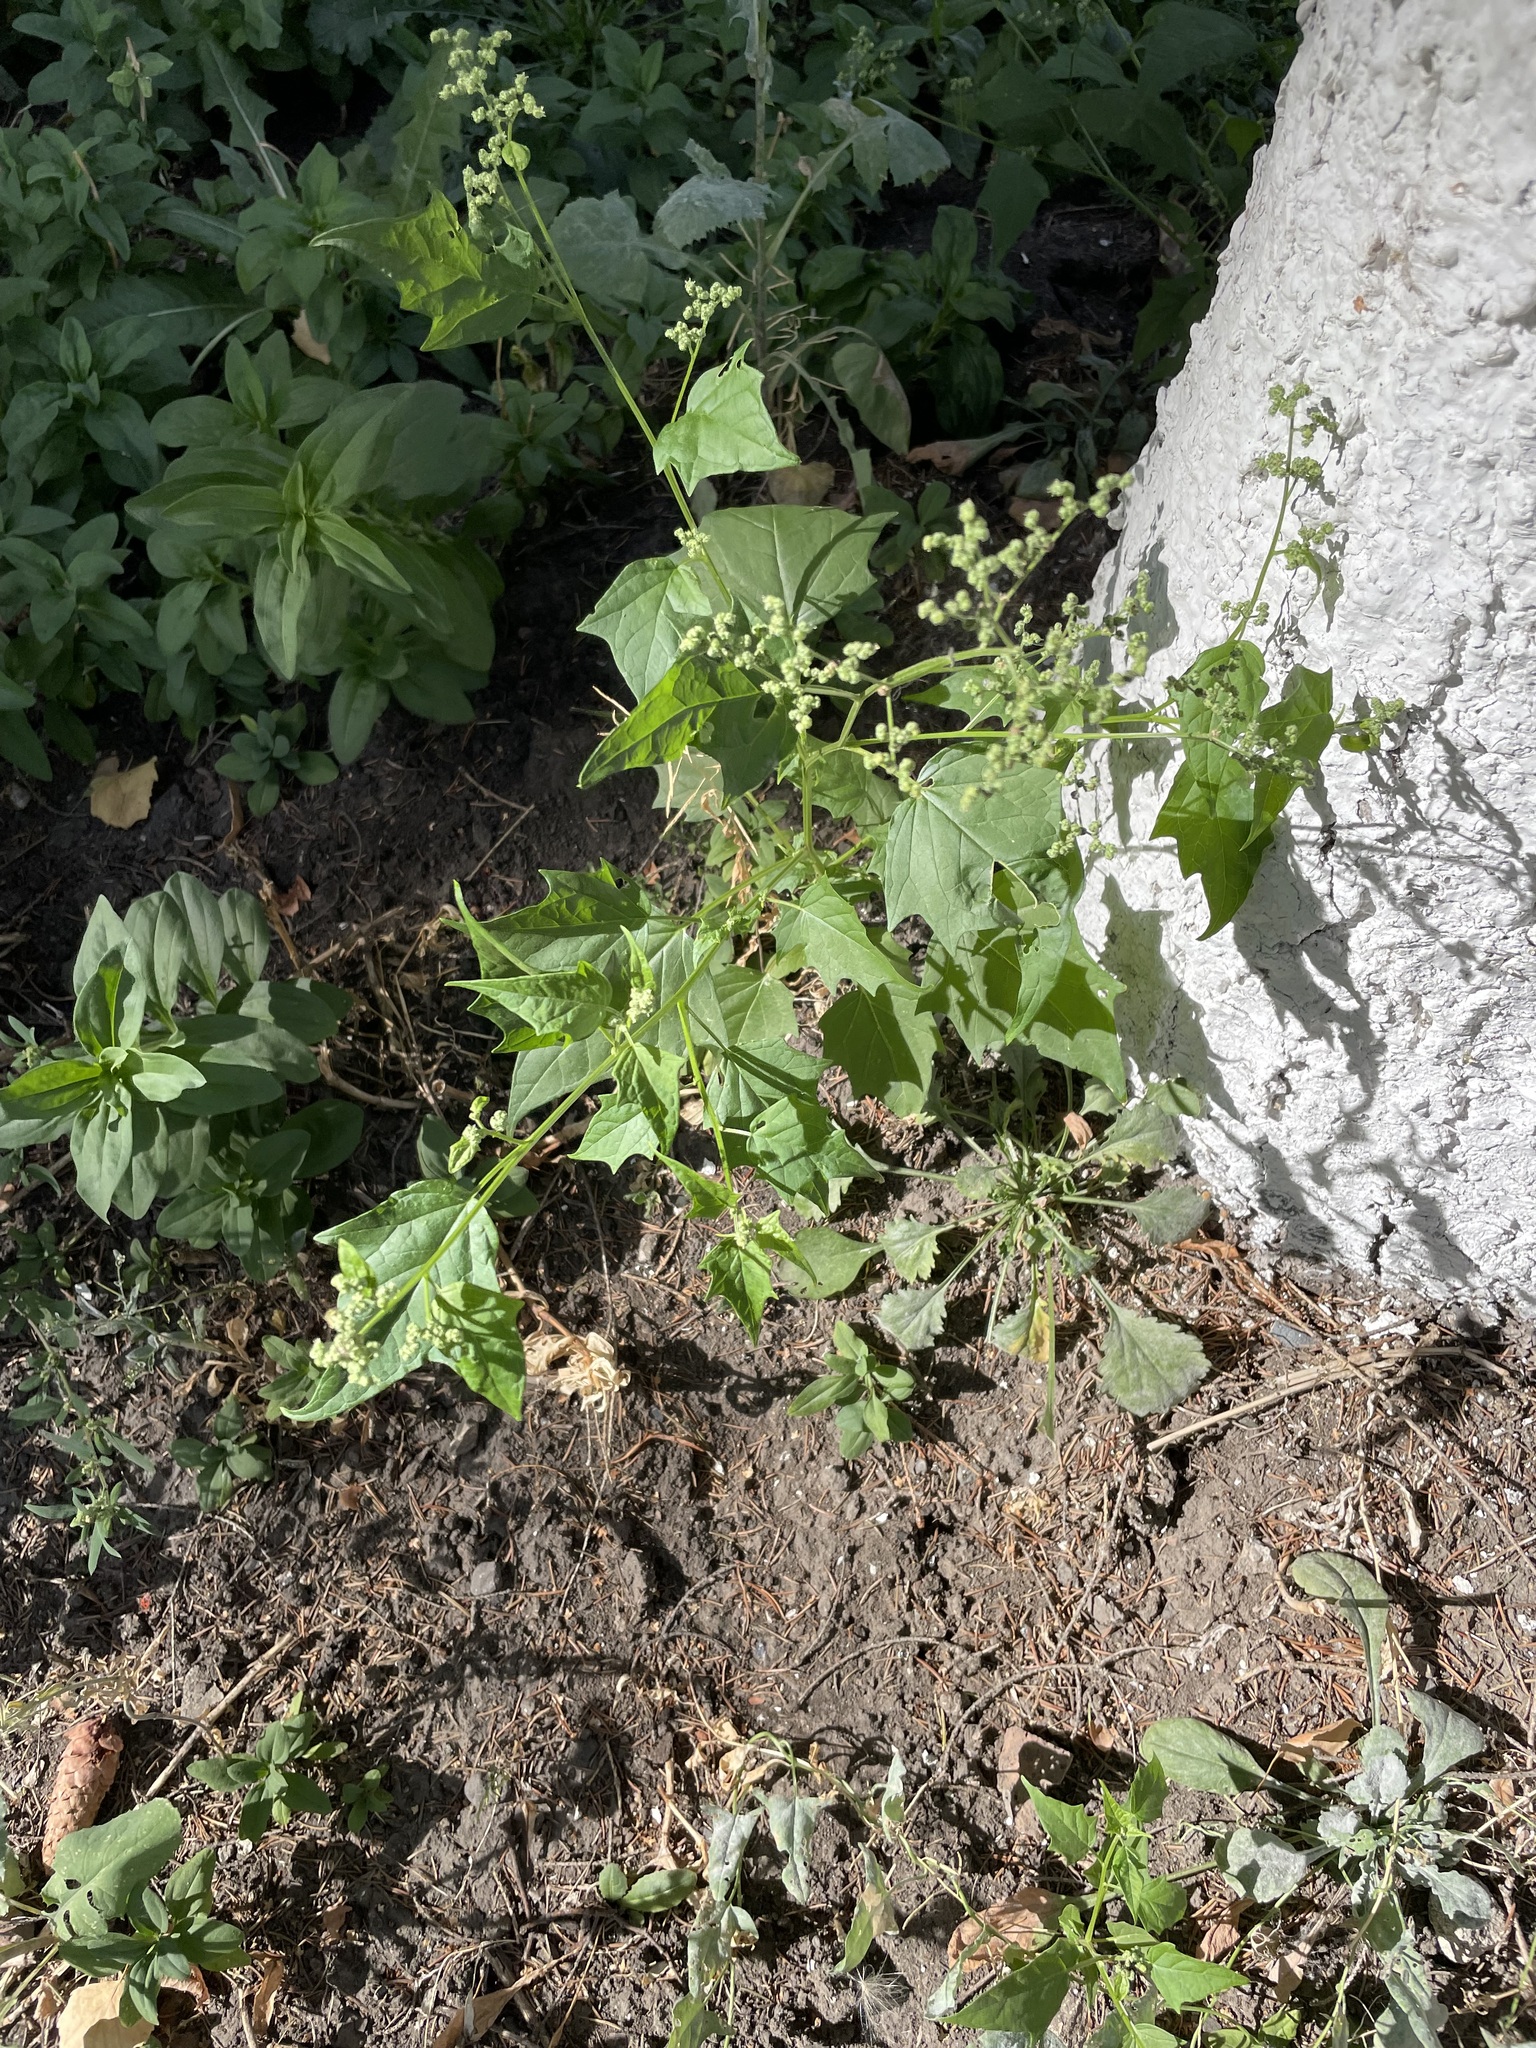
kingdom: Plantae
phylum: Tracheophyta
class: Magnoliopsida
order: Caryophyllales
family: Amaranthaceae
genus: Chenopodiastrum
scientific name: Chenopodiastrum hybridum
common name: Mapleleaf goosefoot
